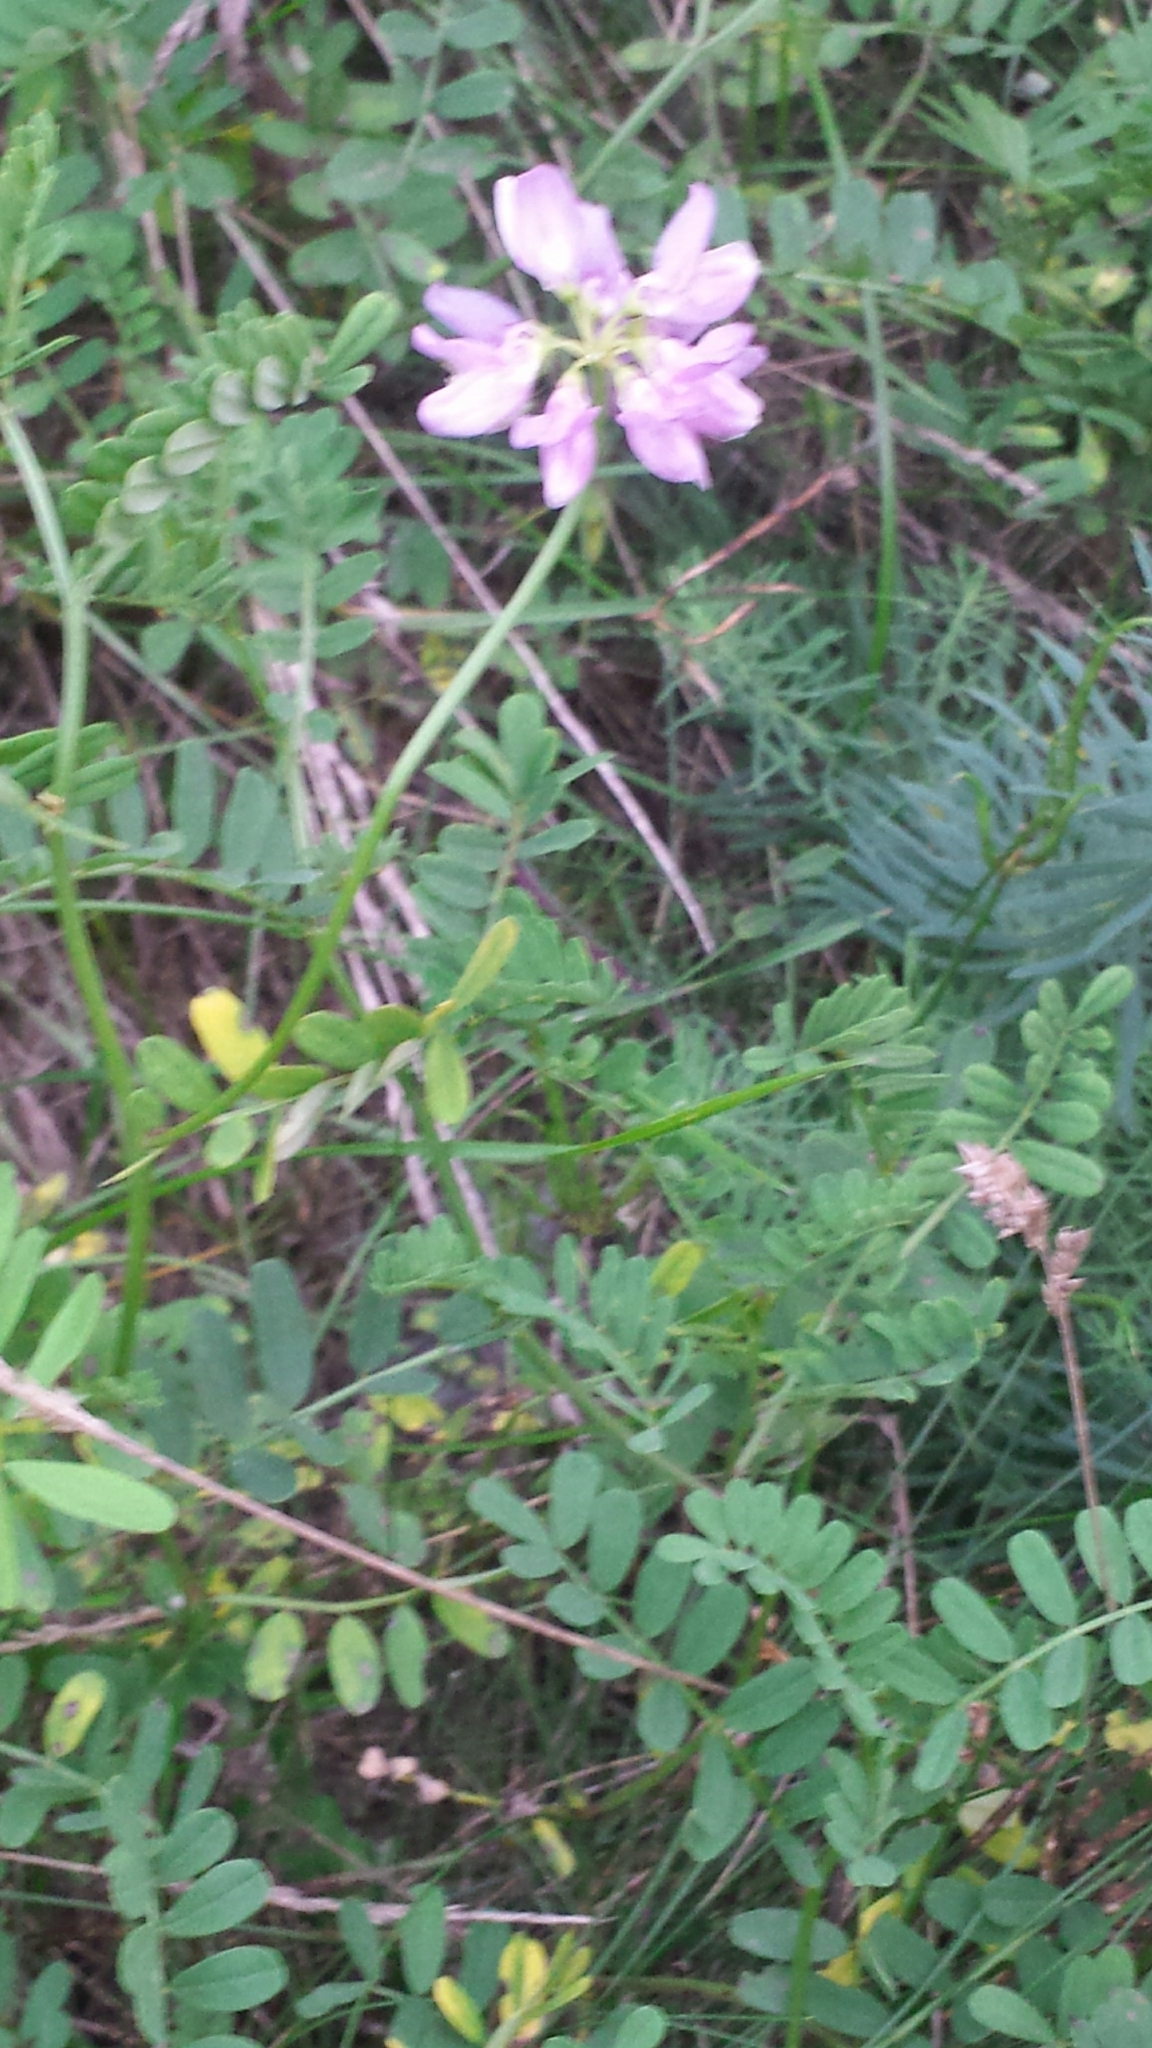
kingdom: Plantae
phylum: Tracheophyta
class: Magnoliopsida
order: Fabales
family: Fabaceae
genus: Coronilla
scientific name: Coronilla varia
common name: Crownvetch
